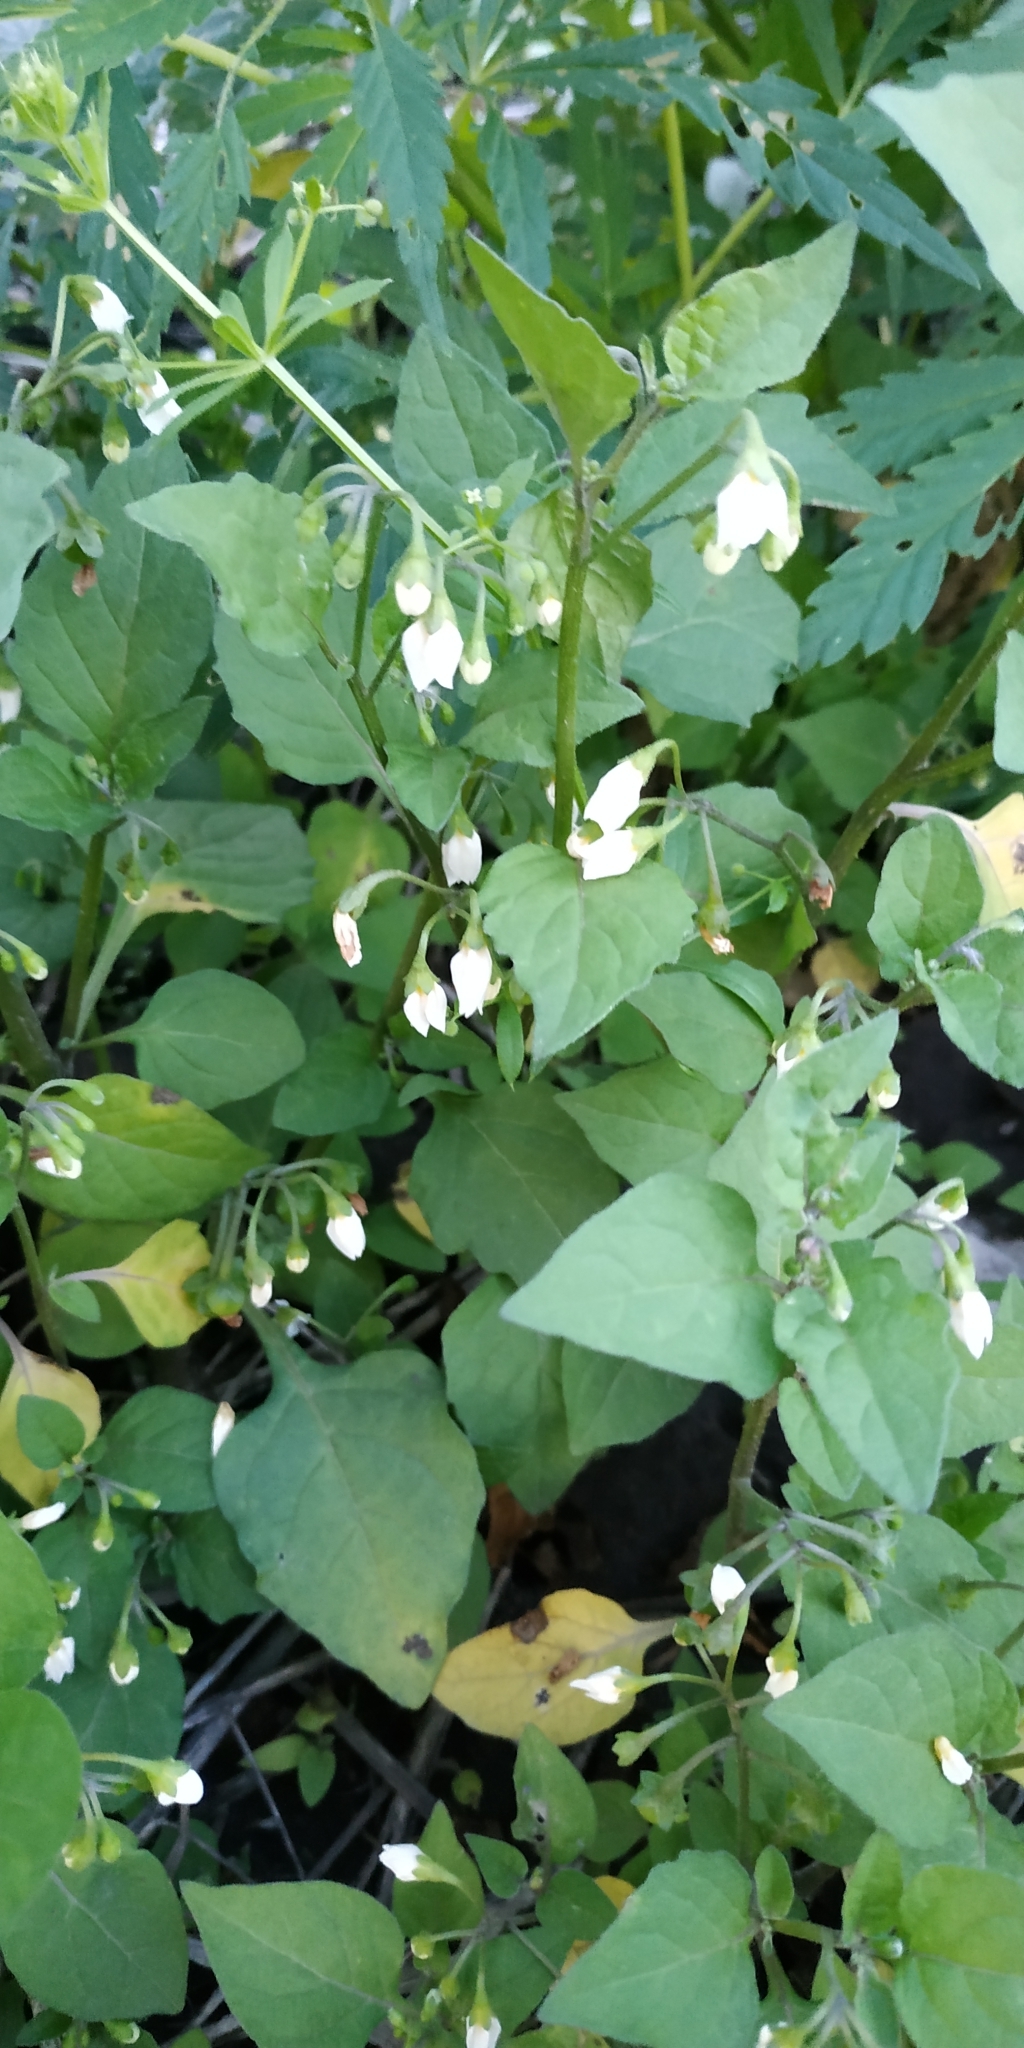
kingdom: Plantae
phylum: Tracheophyta
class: Magnoliopsida
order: Solanales
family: Solanaceae
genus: Solanum
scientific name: Solanum nigrum
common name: Black nightshade
